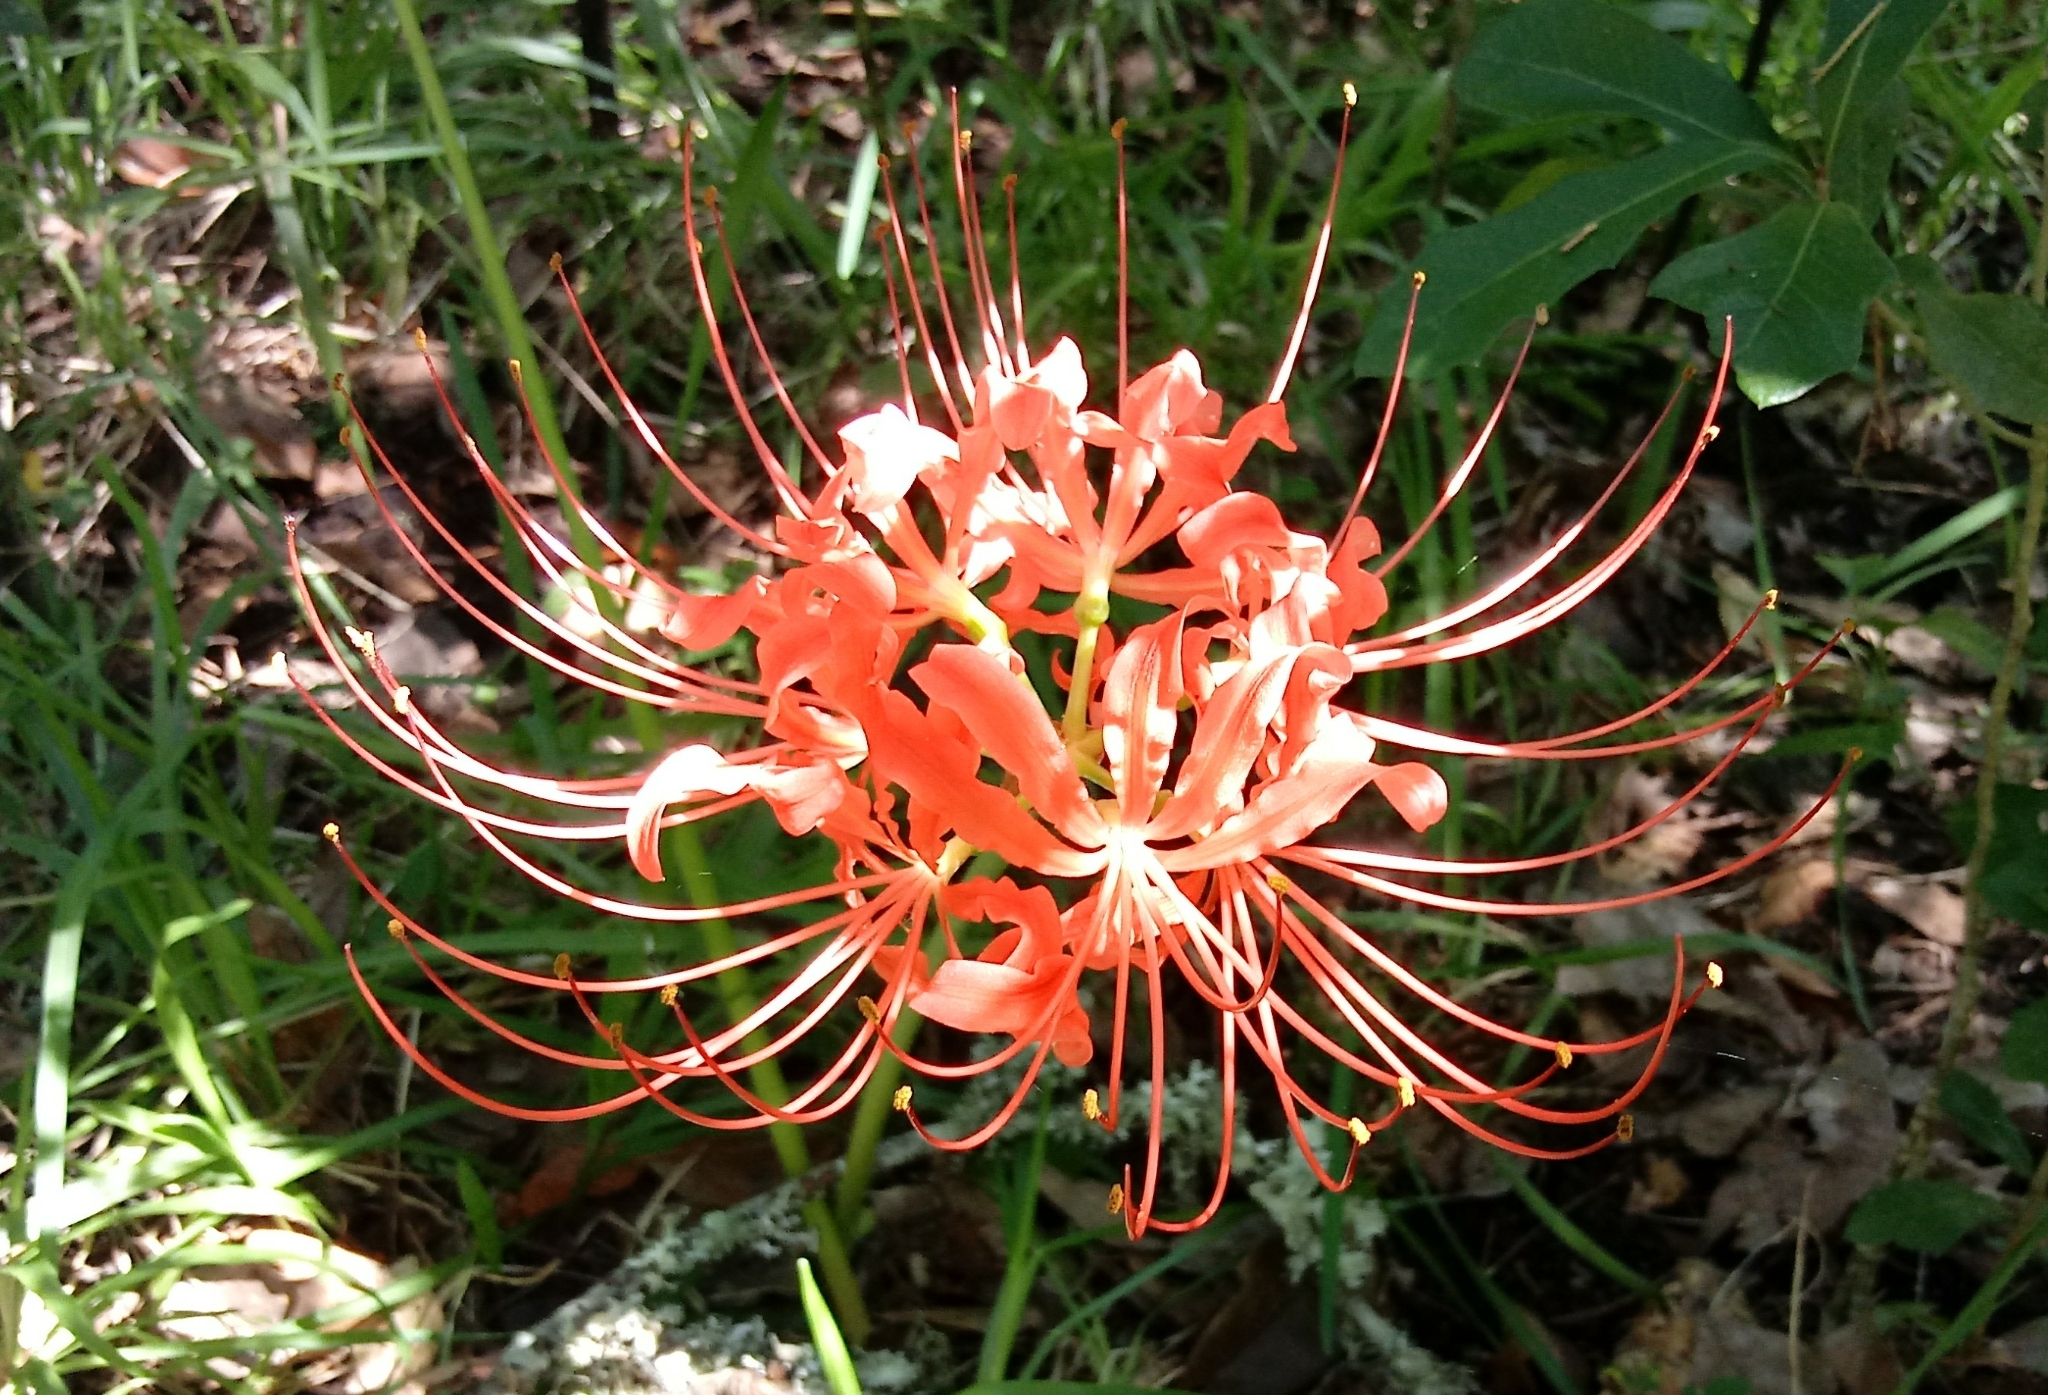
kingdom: Plantae
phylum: Tracheophyta
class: Liliopsida
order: Asparagales
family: Amaryllidaceae
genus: Lycoris
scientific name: Lycoris radiata
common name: Red spider lily
